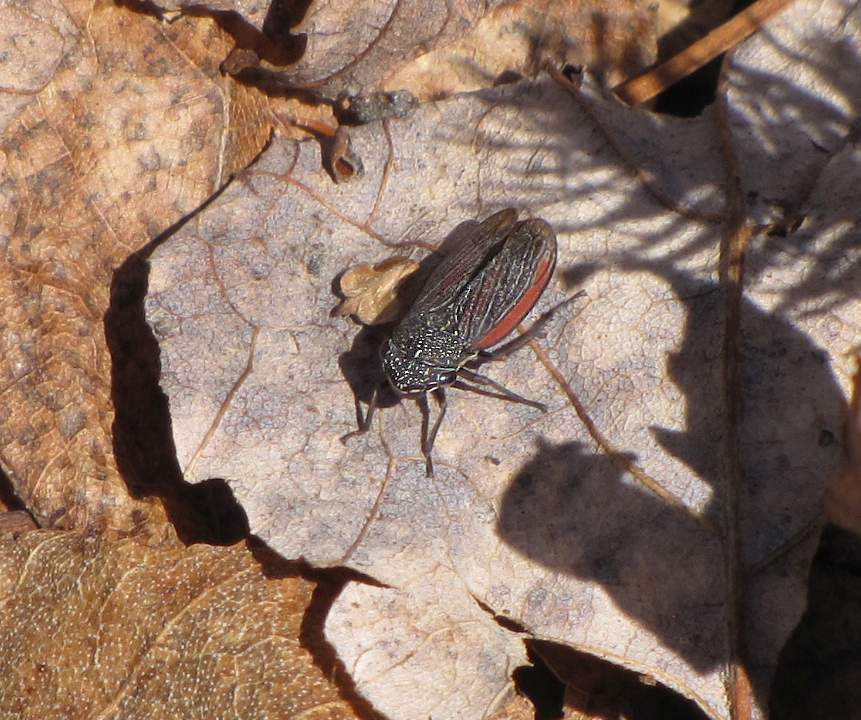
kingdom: Animalia
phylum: Arthropoda
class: Insecta
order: Hemiptera
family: Cicadellidae
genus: Cuerna
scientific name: Cuerna striata
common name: Striped leafhopper
